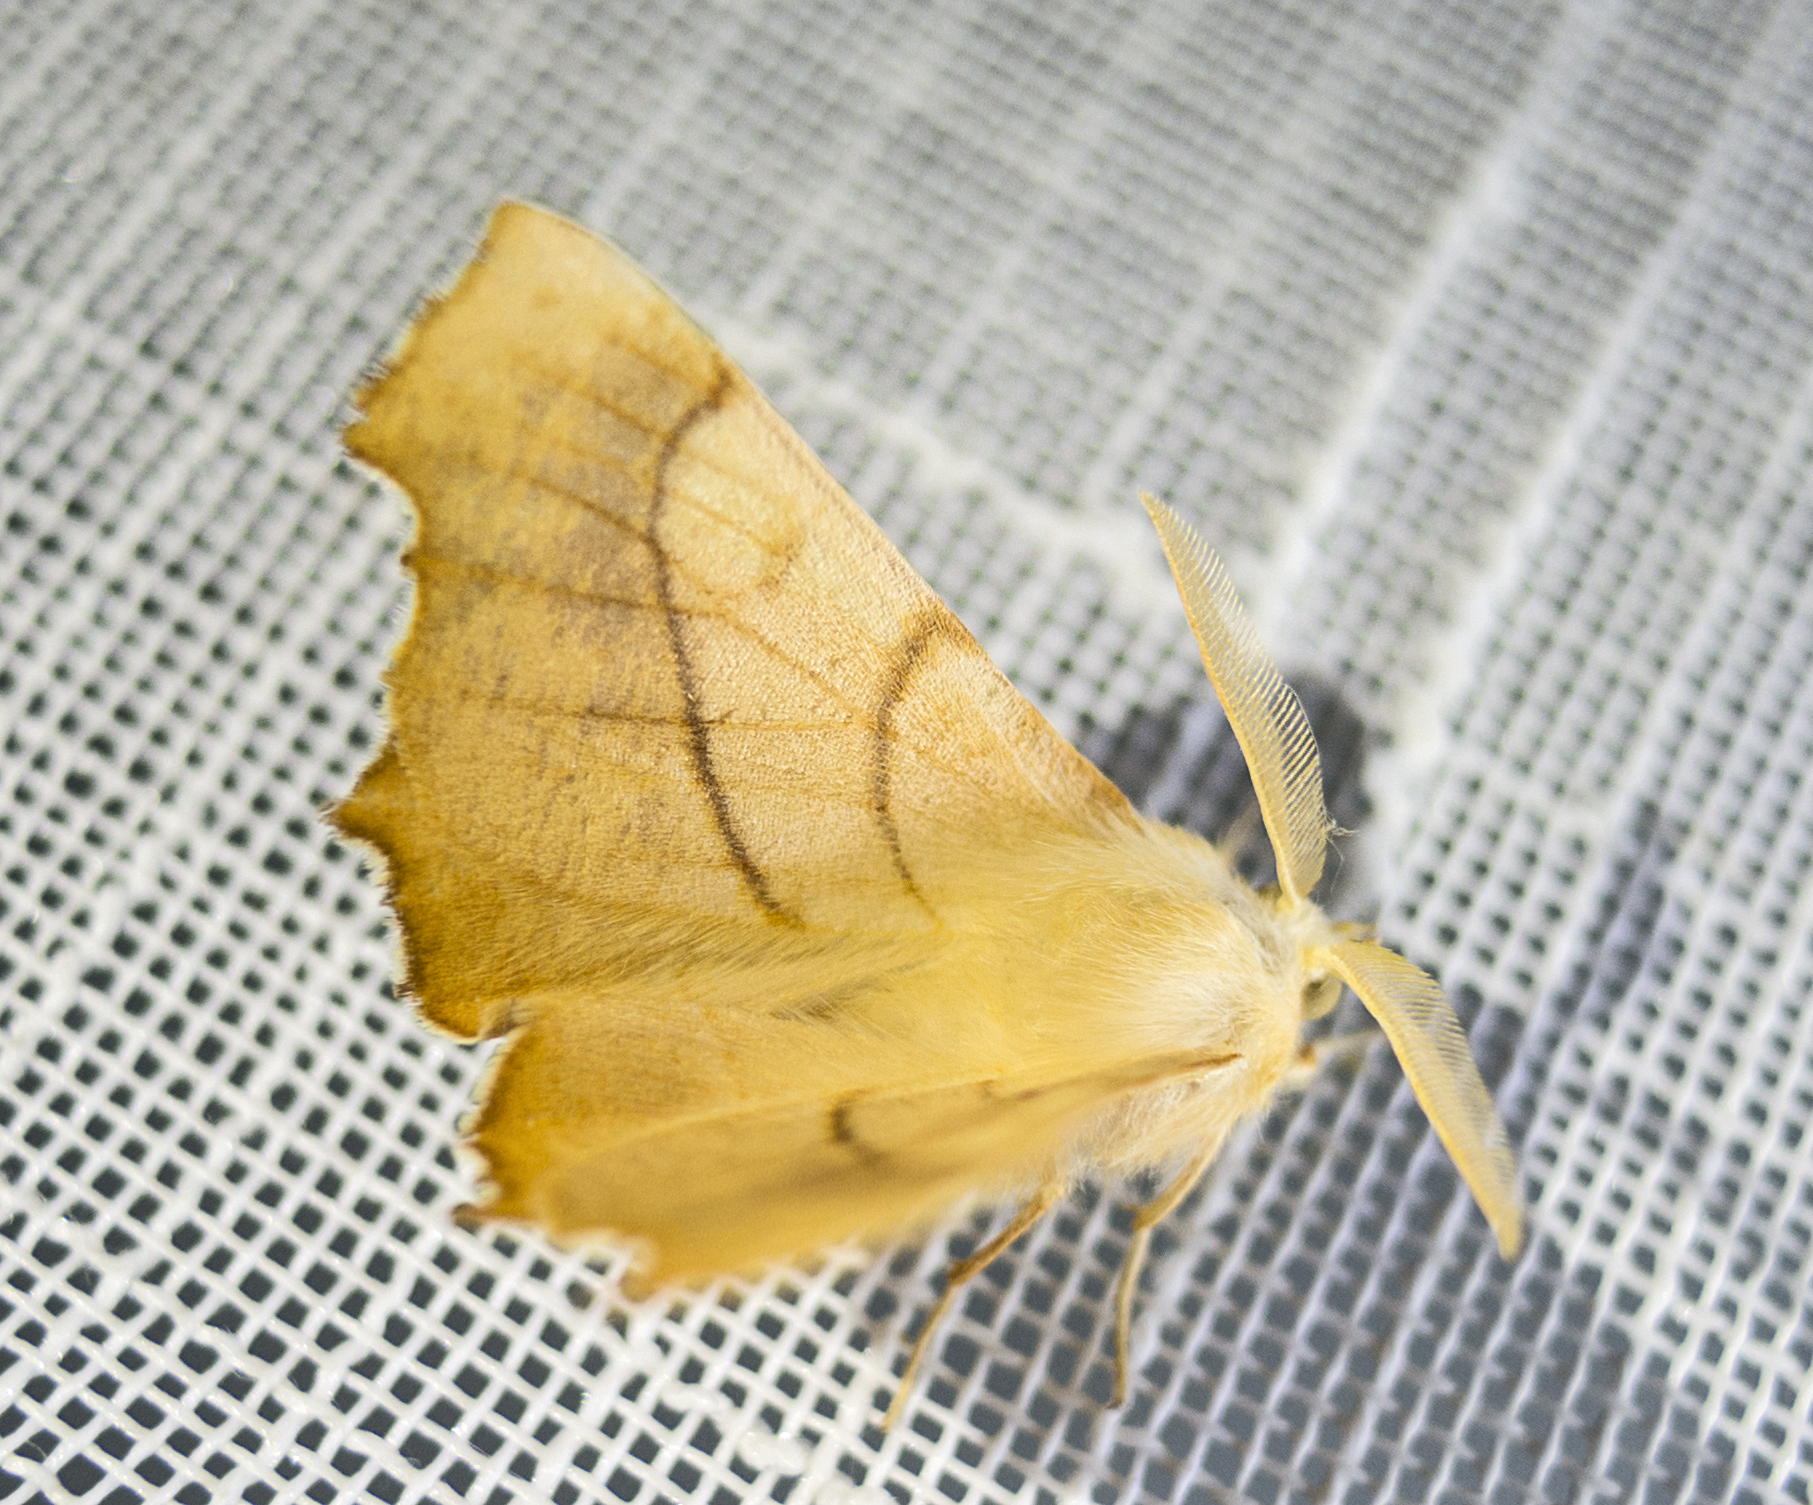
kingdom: Animalia
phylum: Arthropoda
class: Insecta
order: Lepidoptera
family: Geometridae
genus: Ennomos
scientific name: Ennomos fuscantaria
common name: Dusky thorn
